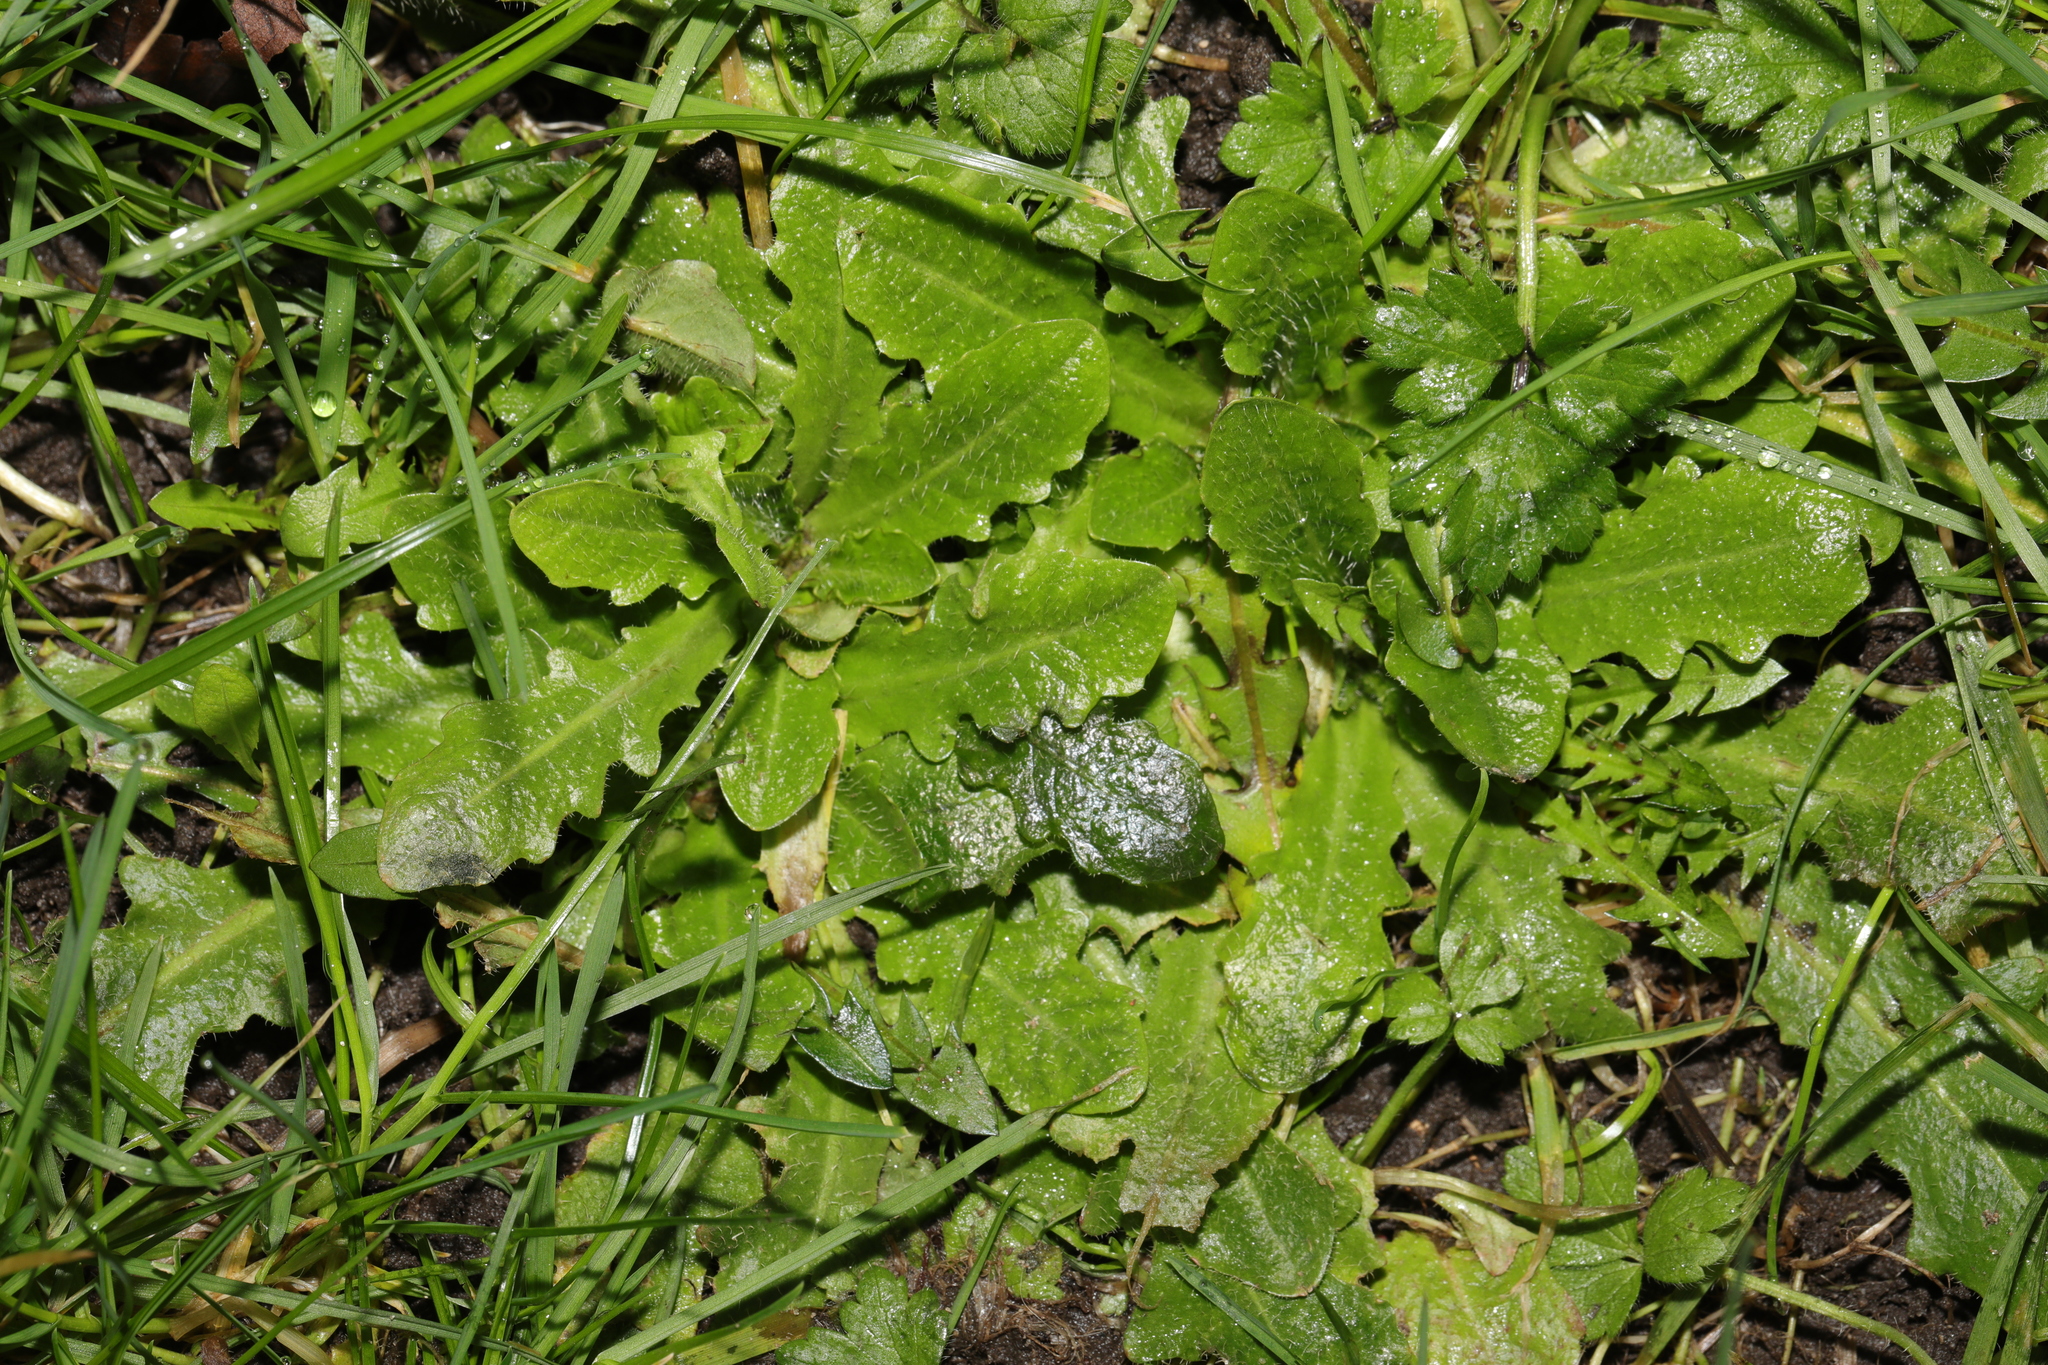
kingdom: Plantae
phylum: Tracheophyta
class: Magnoliopsida
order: Asterales
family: Asteraceae
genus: Hypochaeris
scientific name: Hypochaeris radicata
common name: Flatweed
